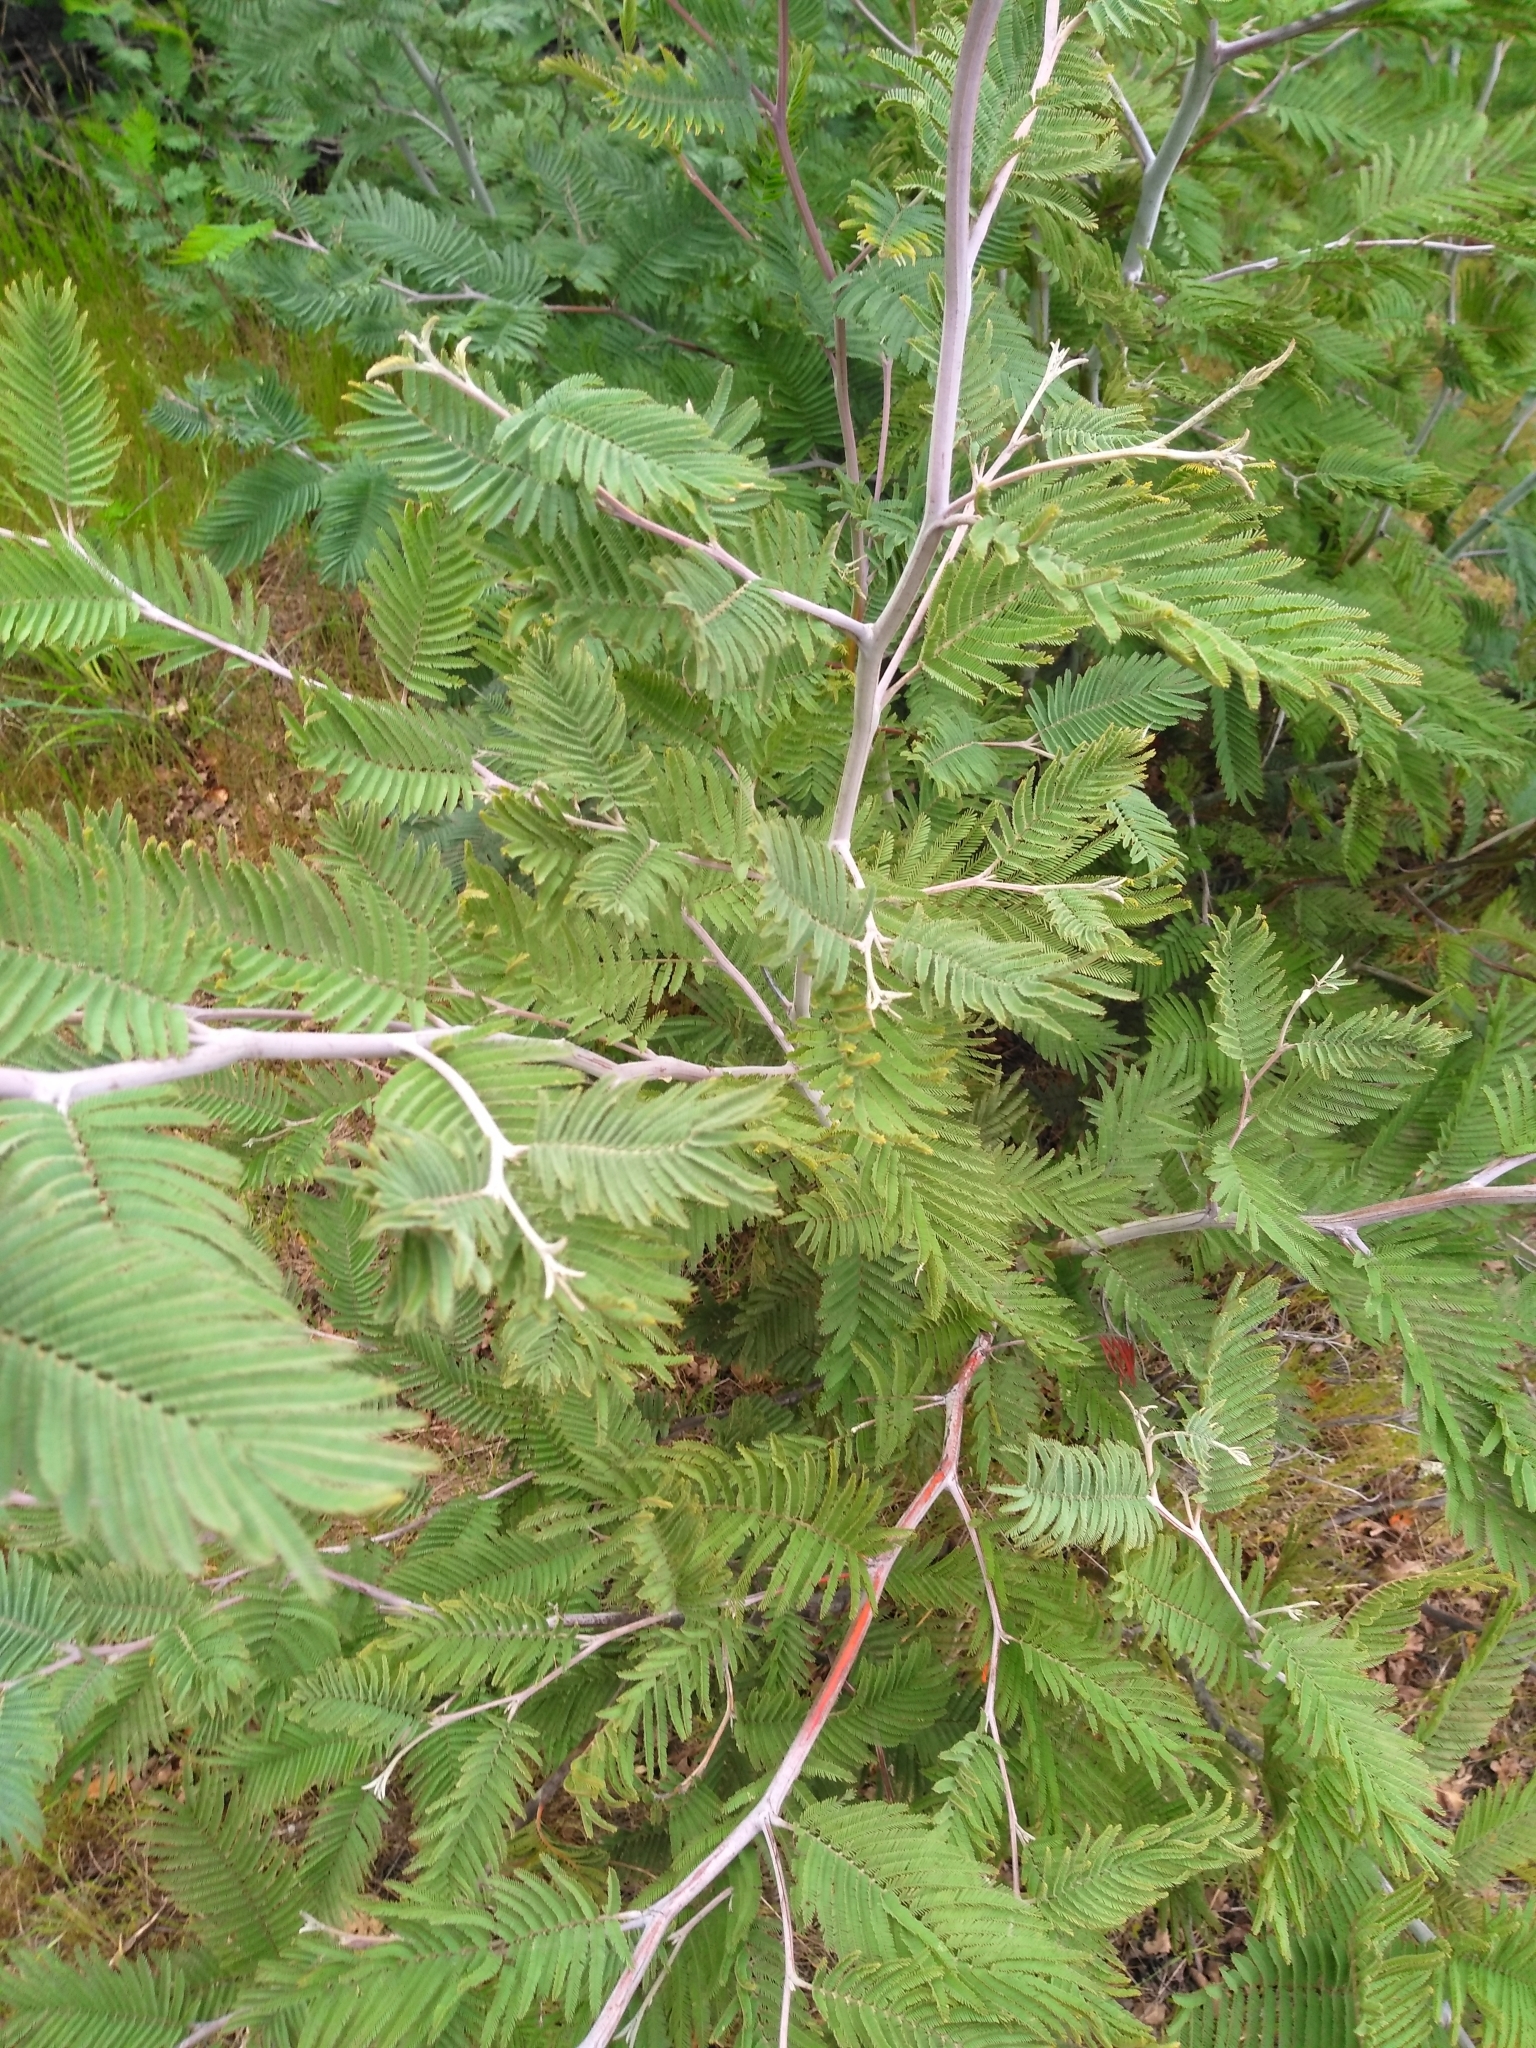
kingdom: Plantae
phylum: Tracheophyta
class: Magnoliopsida
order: Fabales
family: Fabaceae
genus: Acacia
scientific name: Acacia dealbata
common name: Silver wattle
